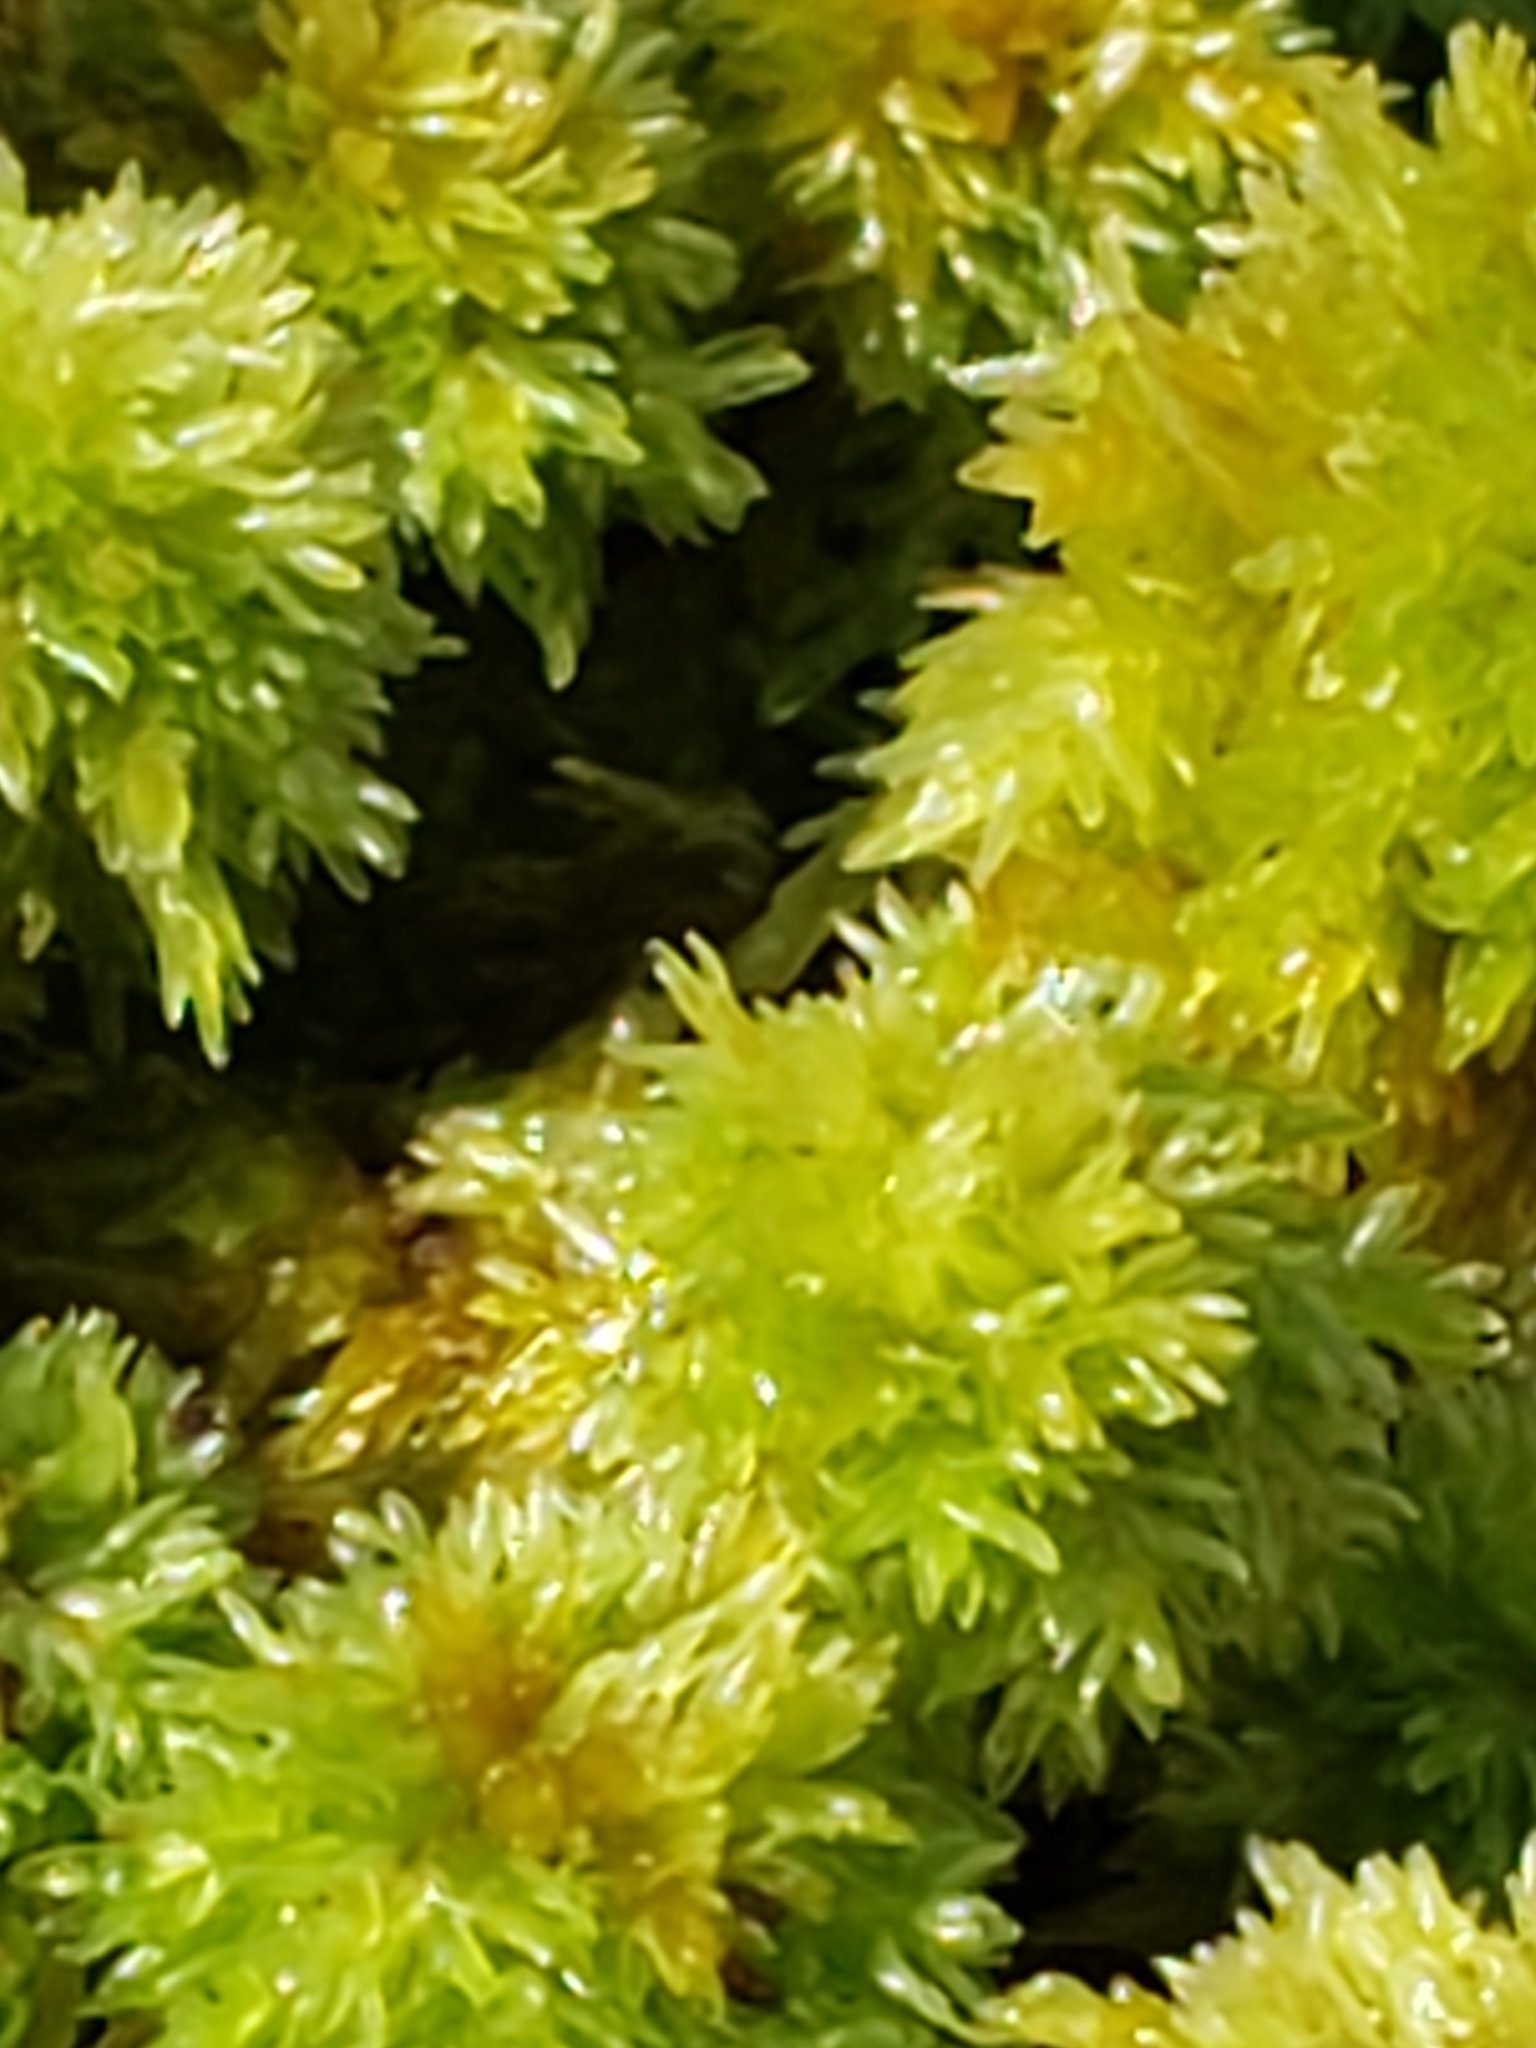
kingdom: Plantae
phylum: Bryophyta
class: Sphagnopsida
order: Sphagnales
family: Sphagnaceae
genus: Sphagnum
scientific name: Sphagnum strictum
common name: Pale bog-moss
